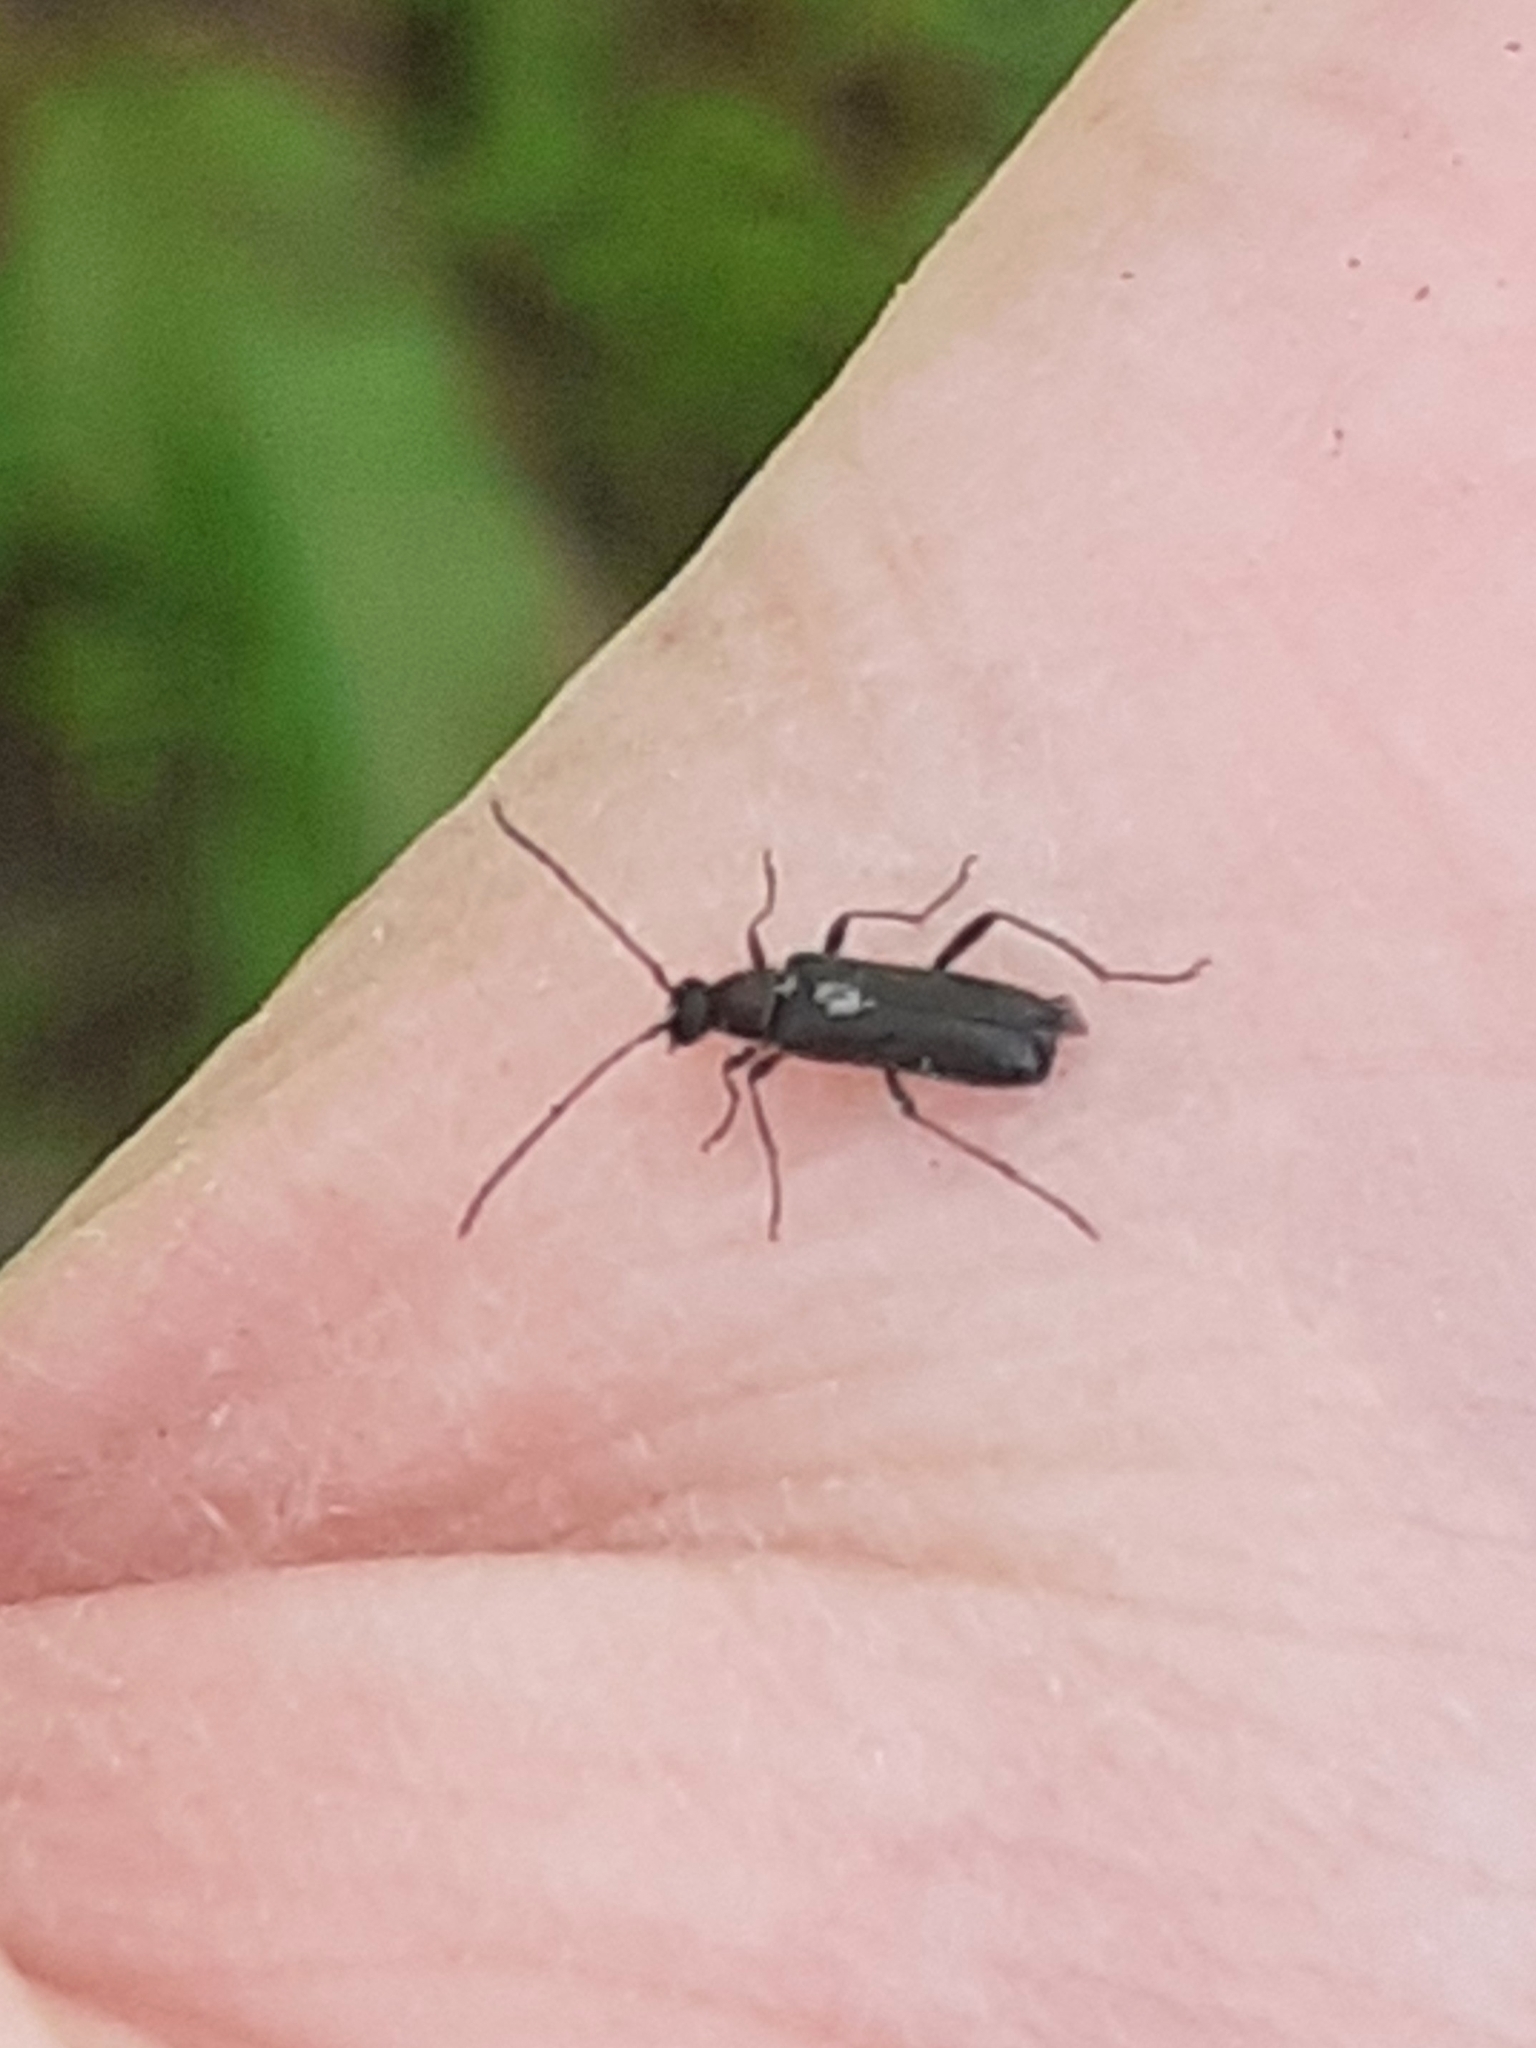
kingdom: Animalia
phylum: Arthropoda
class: Insecta
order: Coleoptera
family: Cerambycidae
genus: Grammoptera
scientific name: Grammoptera ruficornis
